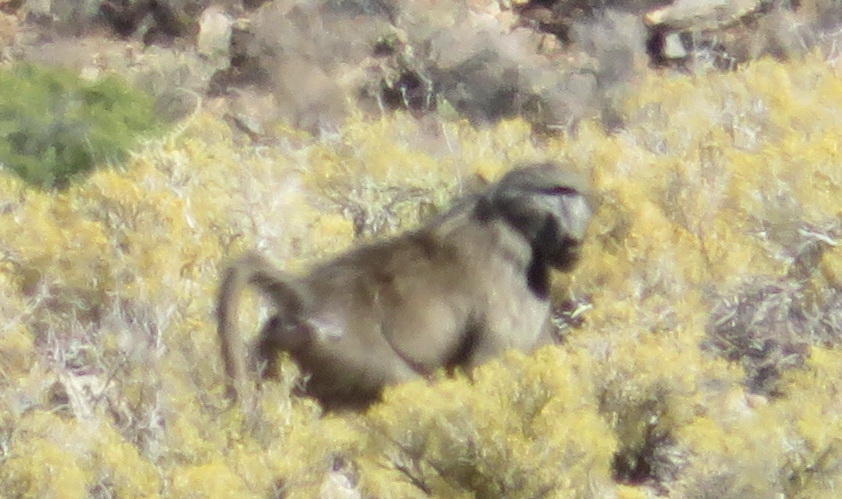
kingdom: Animalia
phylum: Chordata
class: Mammalia
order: Primates
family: Cercopithecidae
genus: Papio
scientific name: Papio ursinus
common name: Chacma baboon
